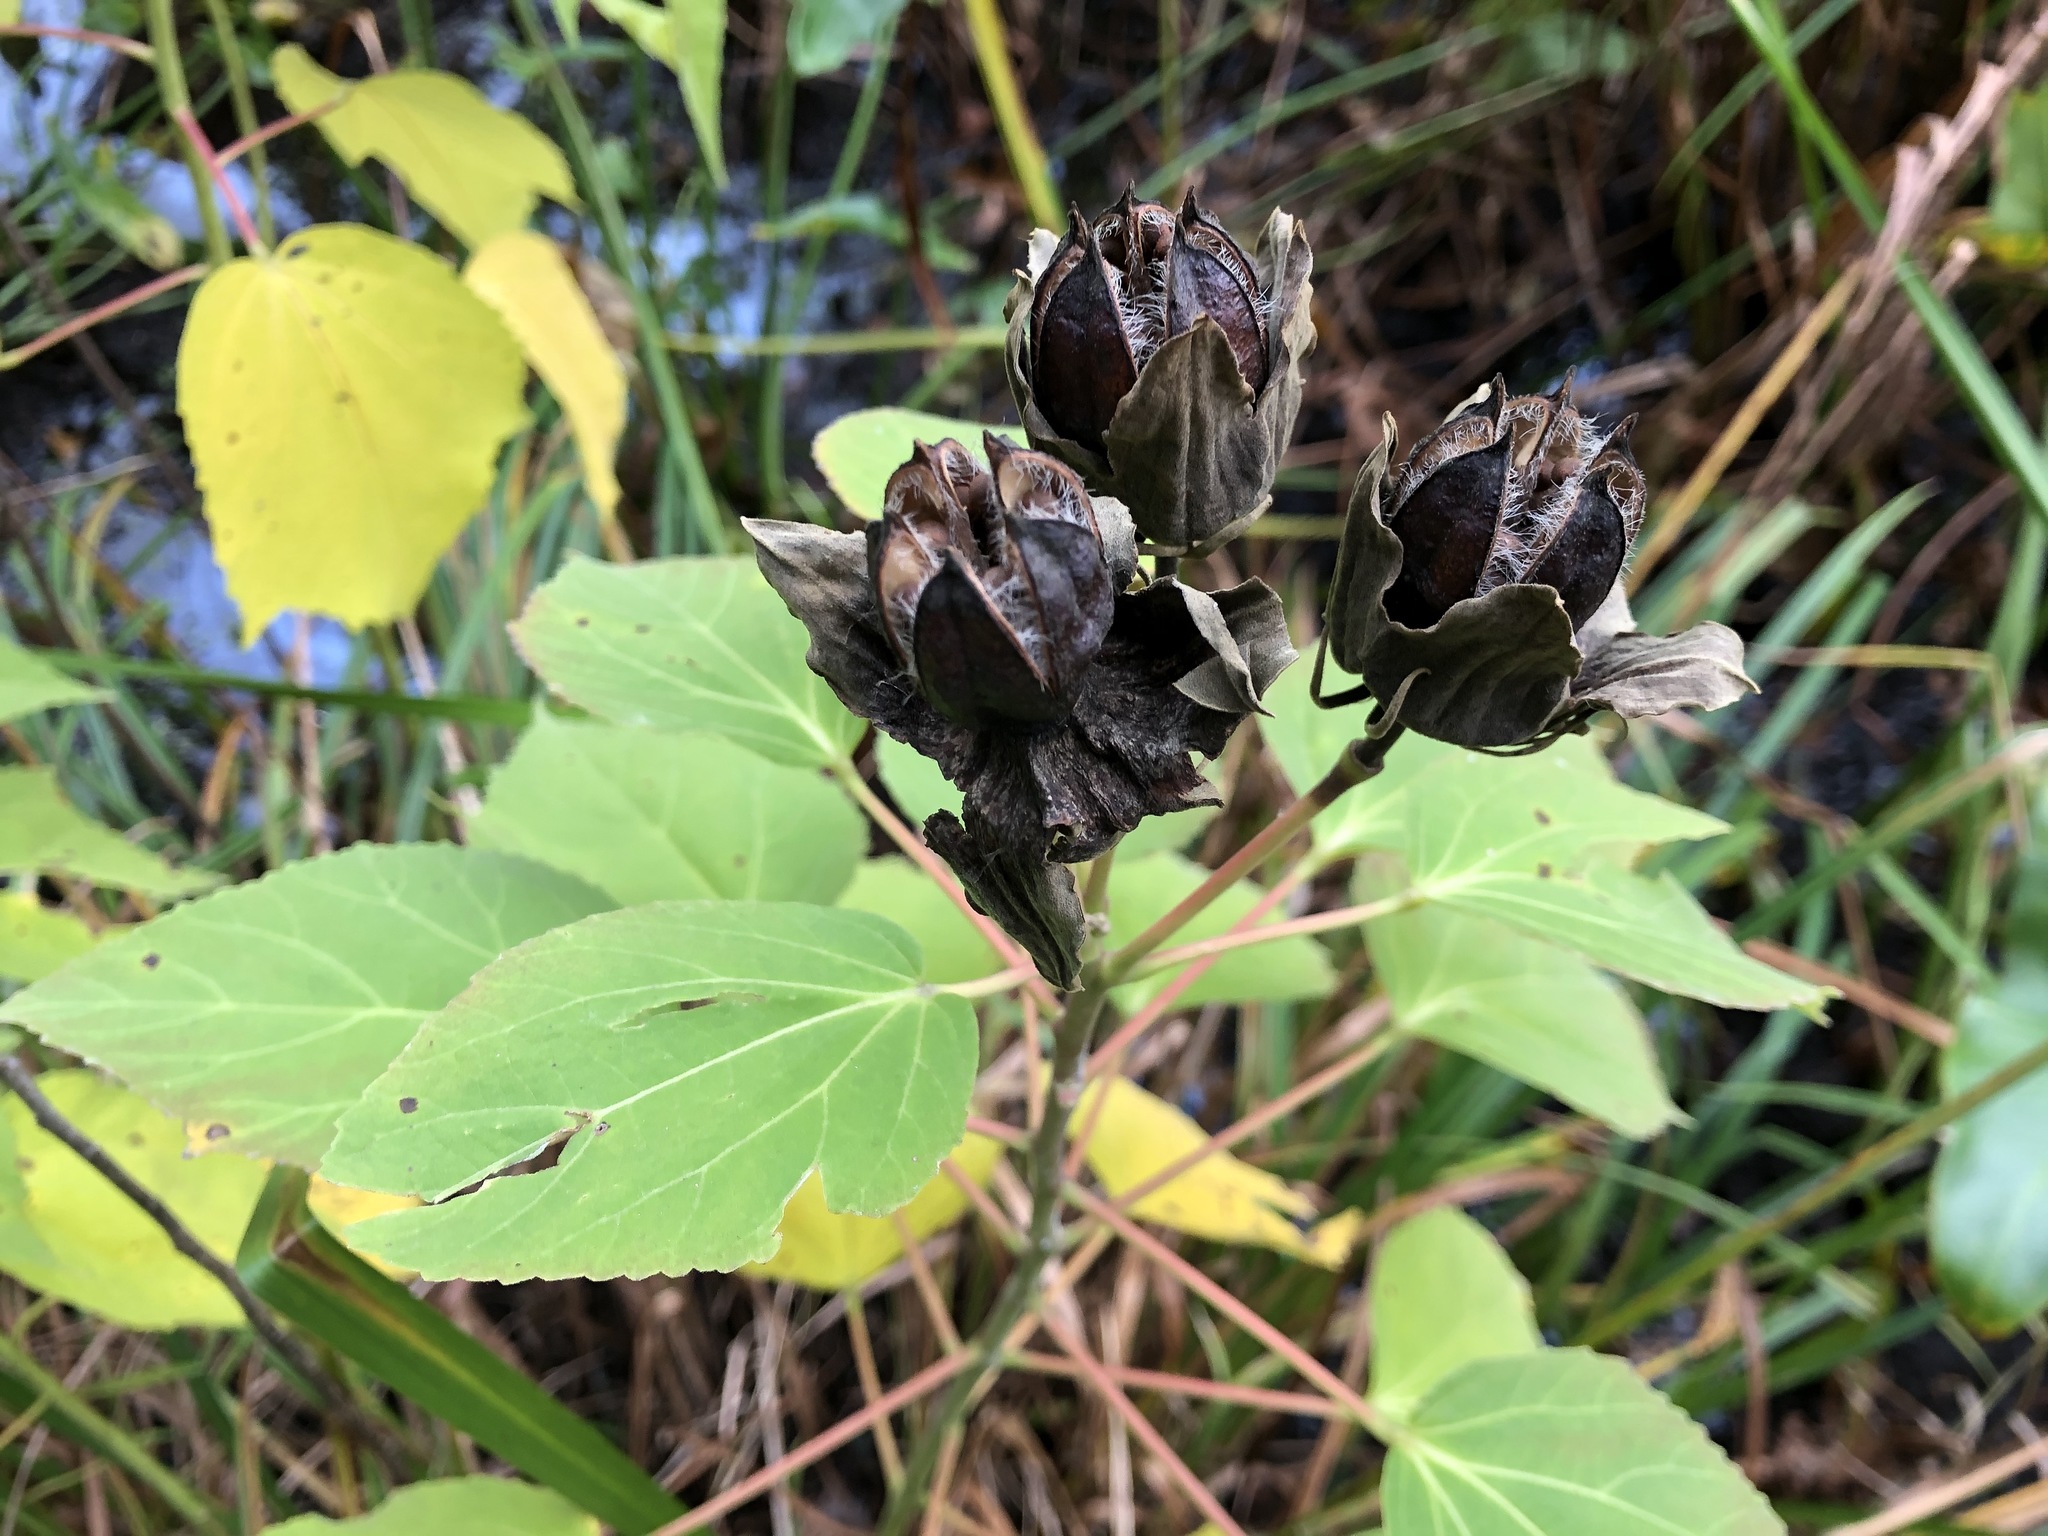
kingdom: Plantae
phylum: Tracheophyta
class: Magnoliopsida
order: Malvales
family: Malvaceae
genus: Hibiscus
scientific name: Hibiscus moscheutos
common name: Common rose-mallow
